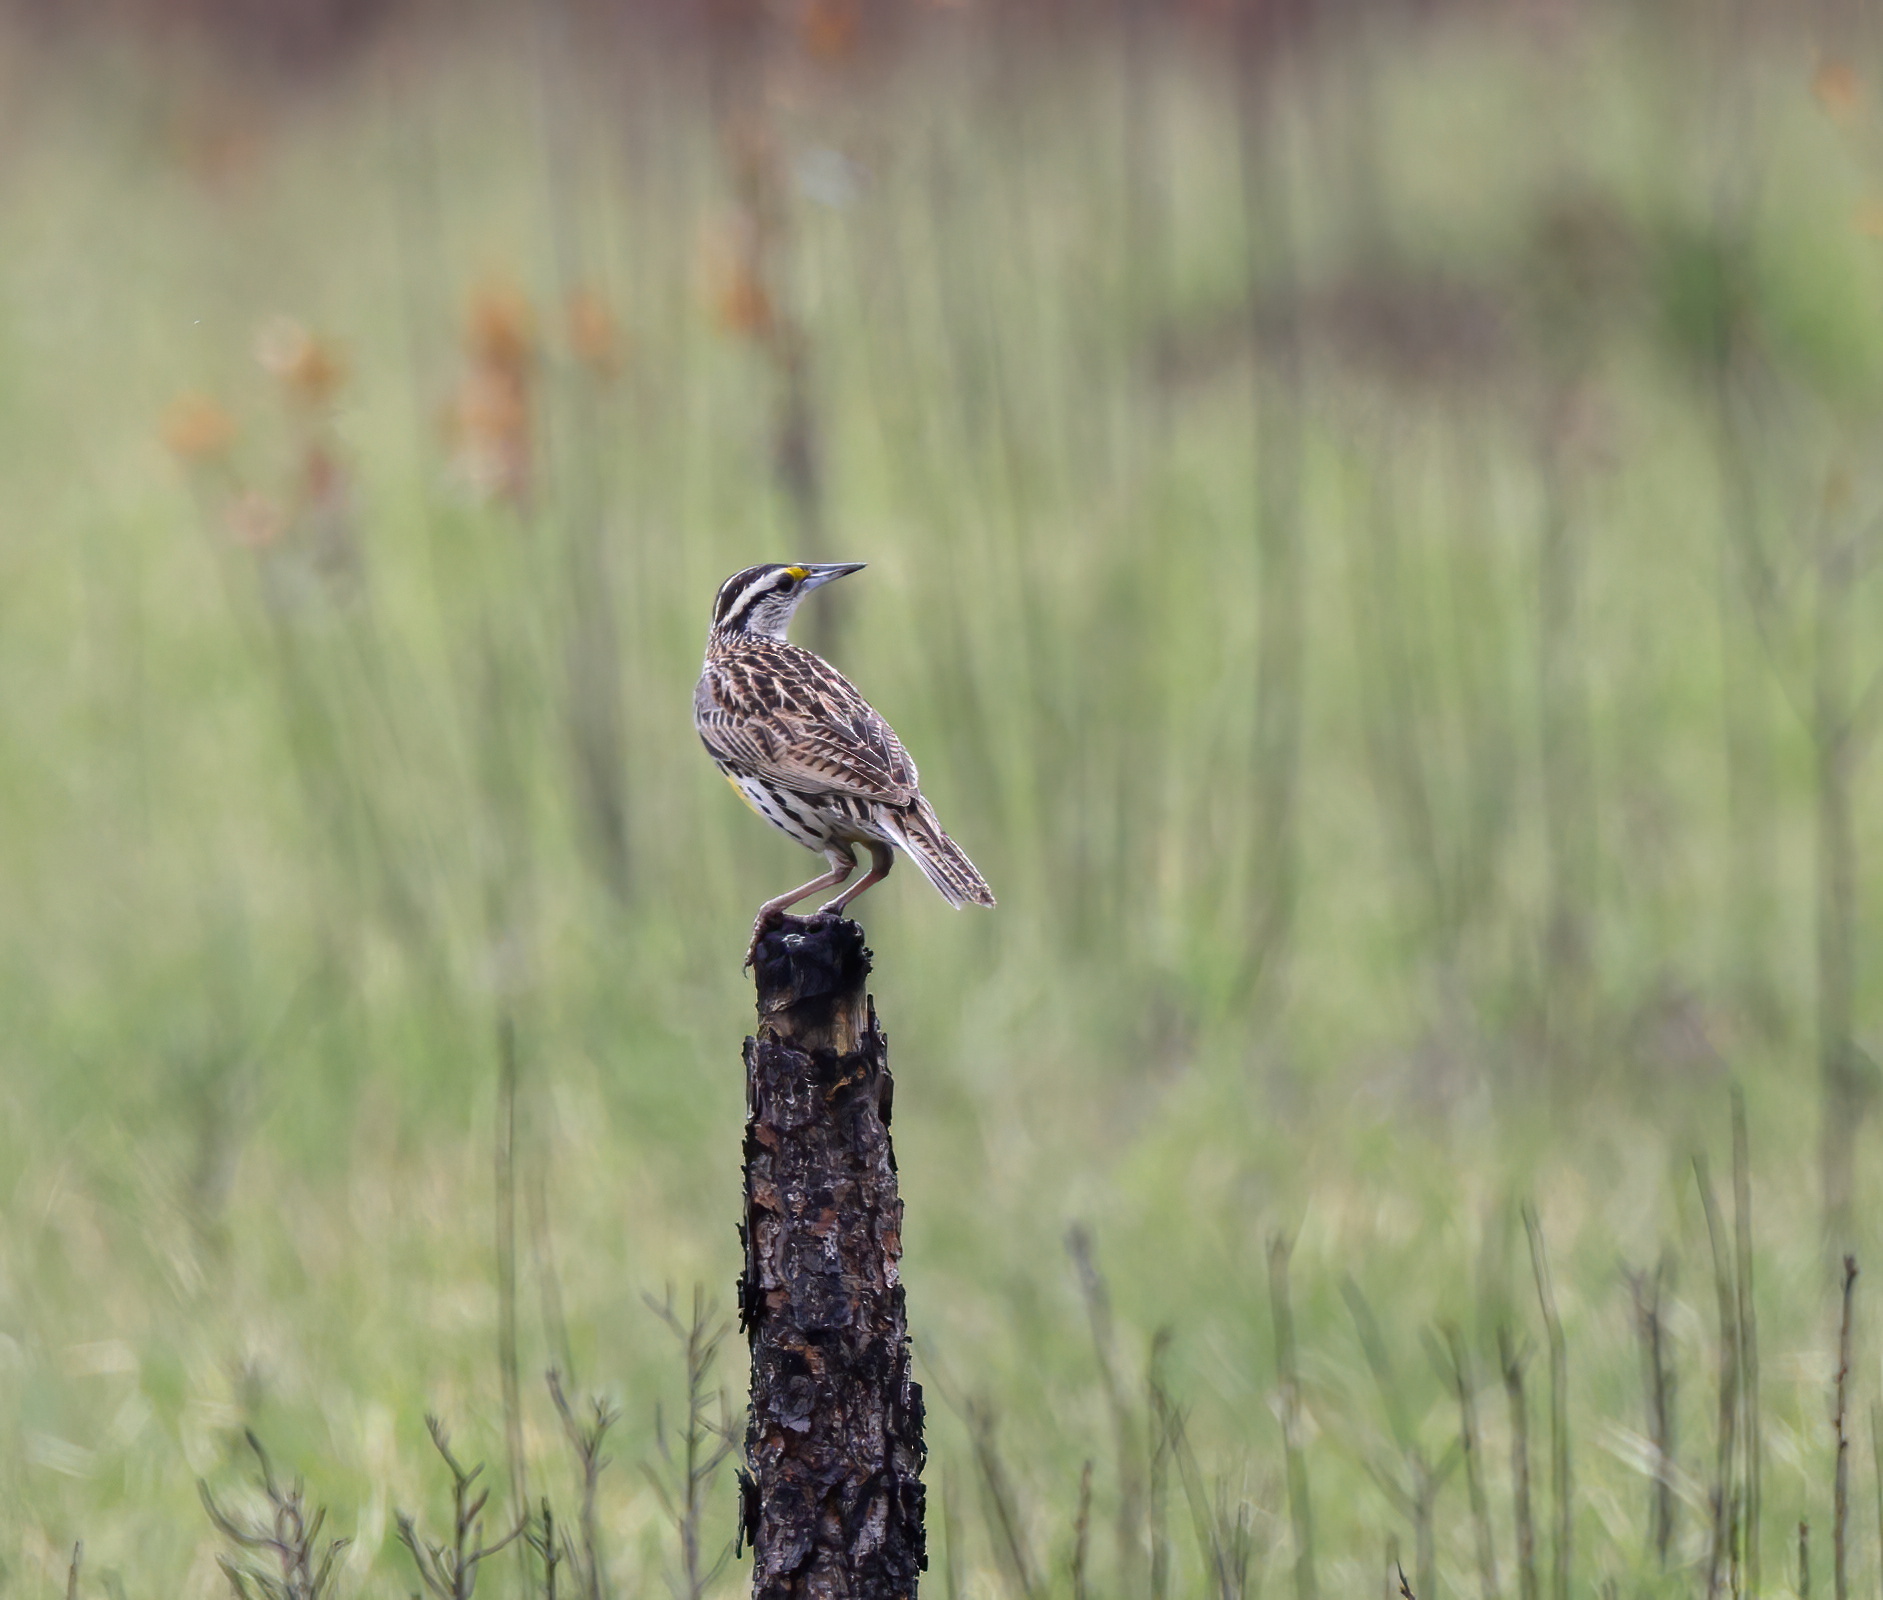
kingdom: Animalia
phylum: Chordata
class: Aves
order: Passeriformes
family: Icteridae
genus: Sturnella
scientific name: Sturnella magna
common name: Eastern meadowlark
